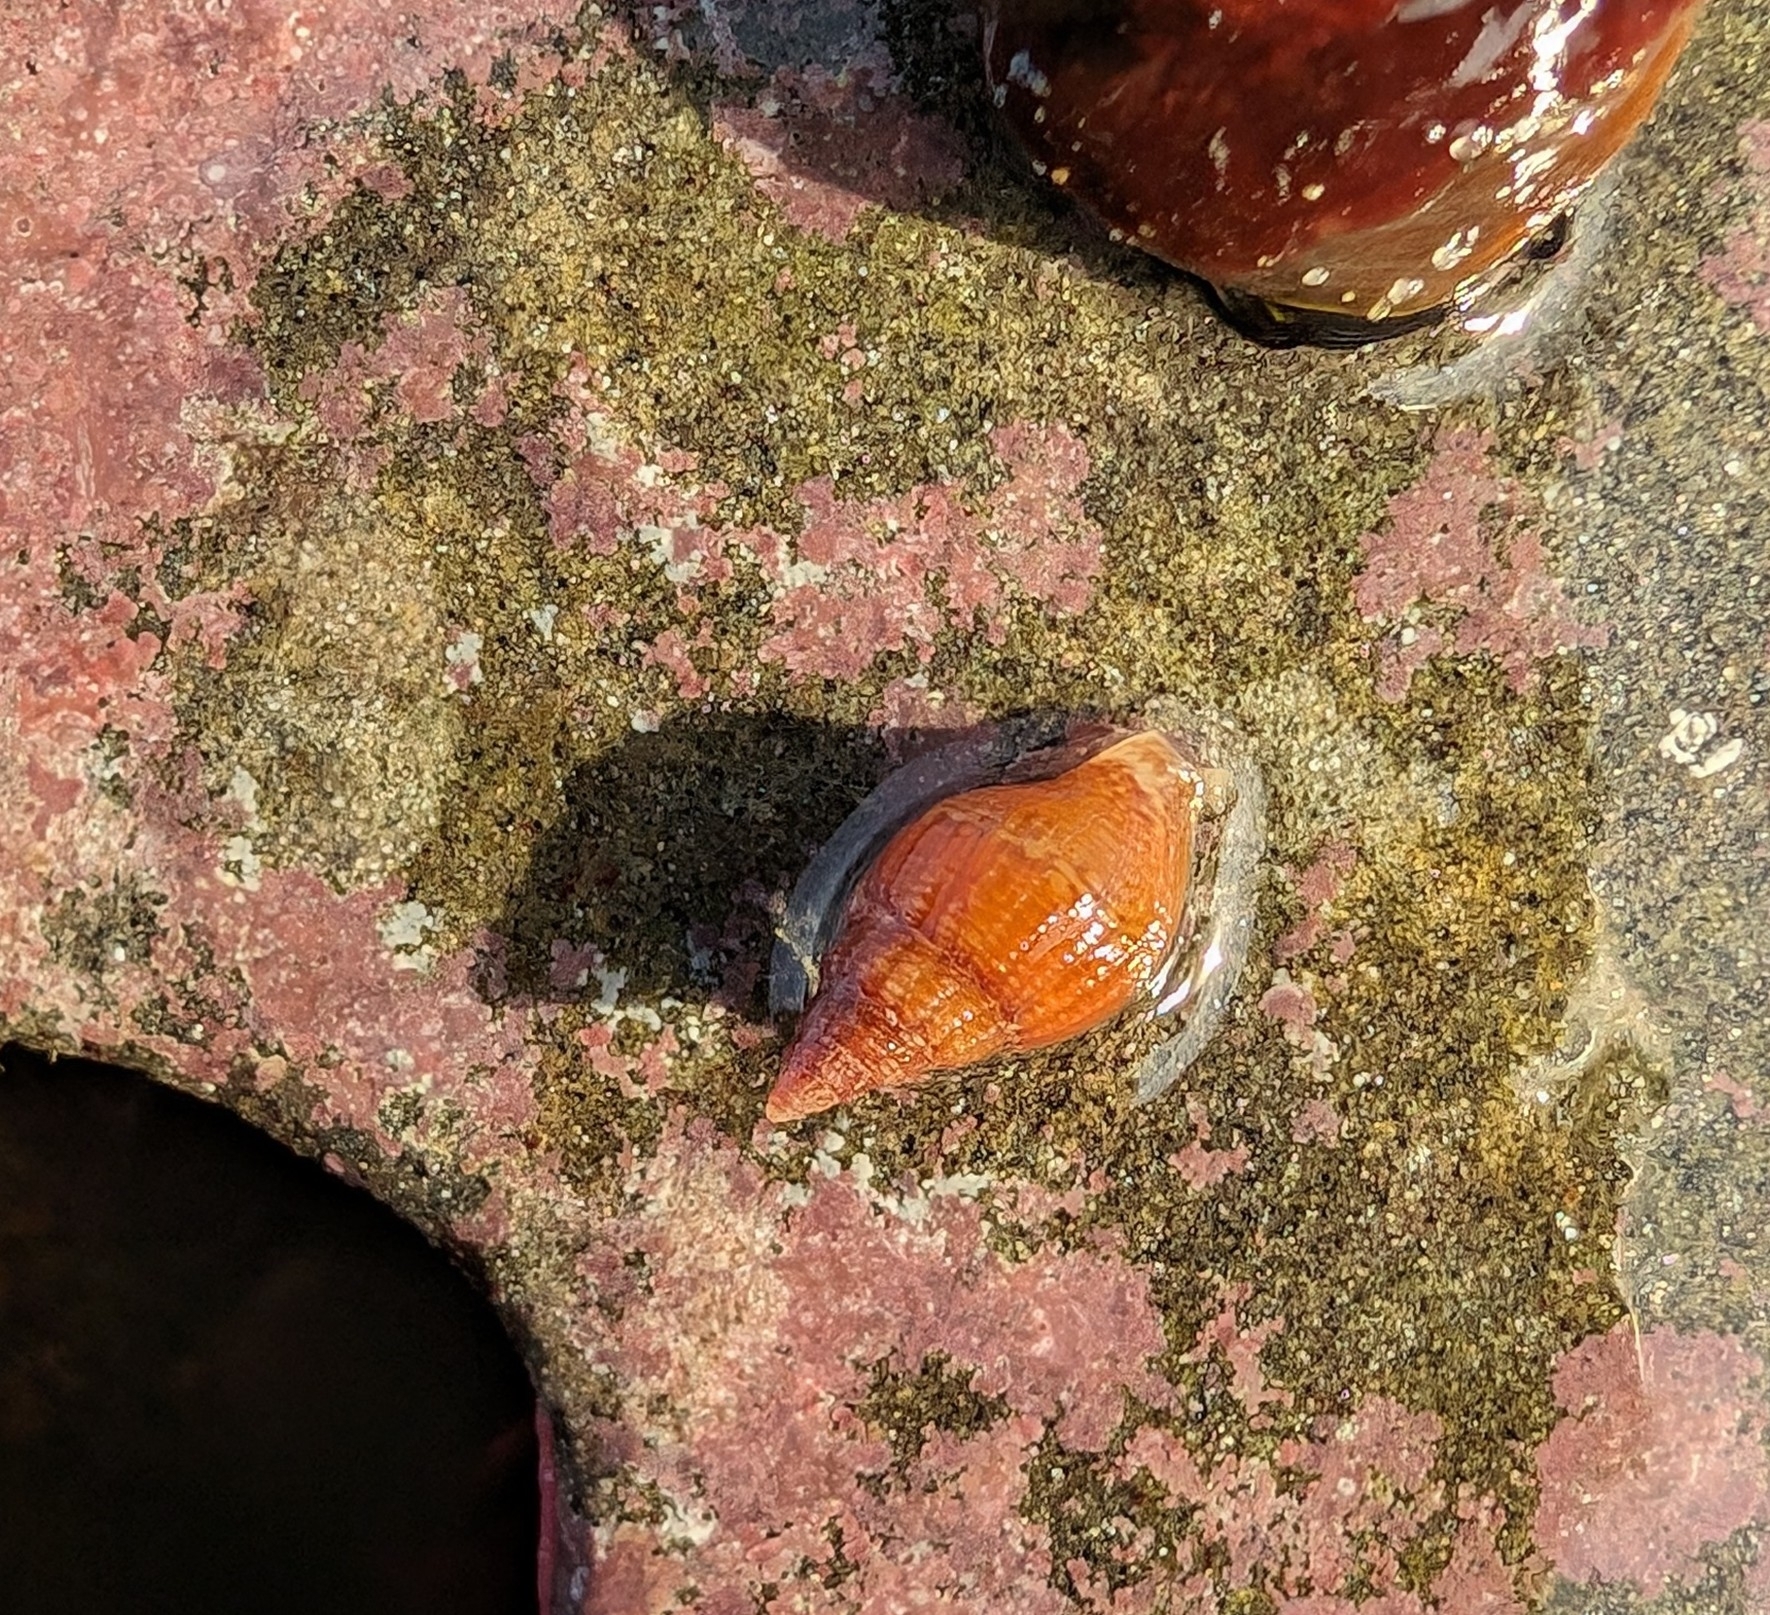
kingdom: Animalia
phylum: Mollusca
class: Gastropoda
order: Neogastropoda
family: Columbellidae
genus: Amphissa
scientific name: Amphissa columbiana
